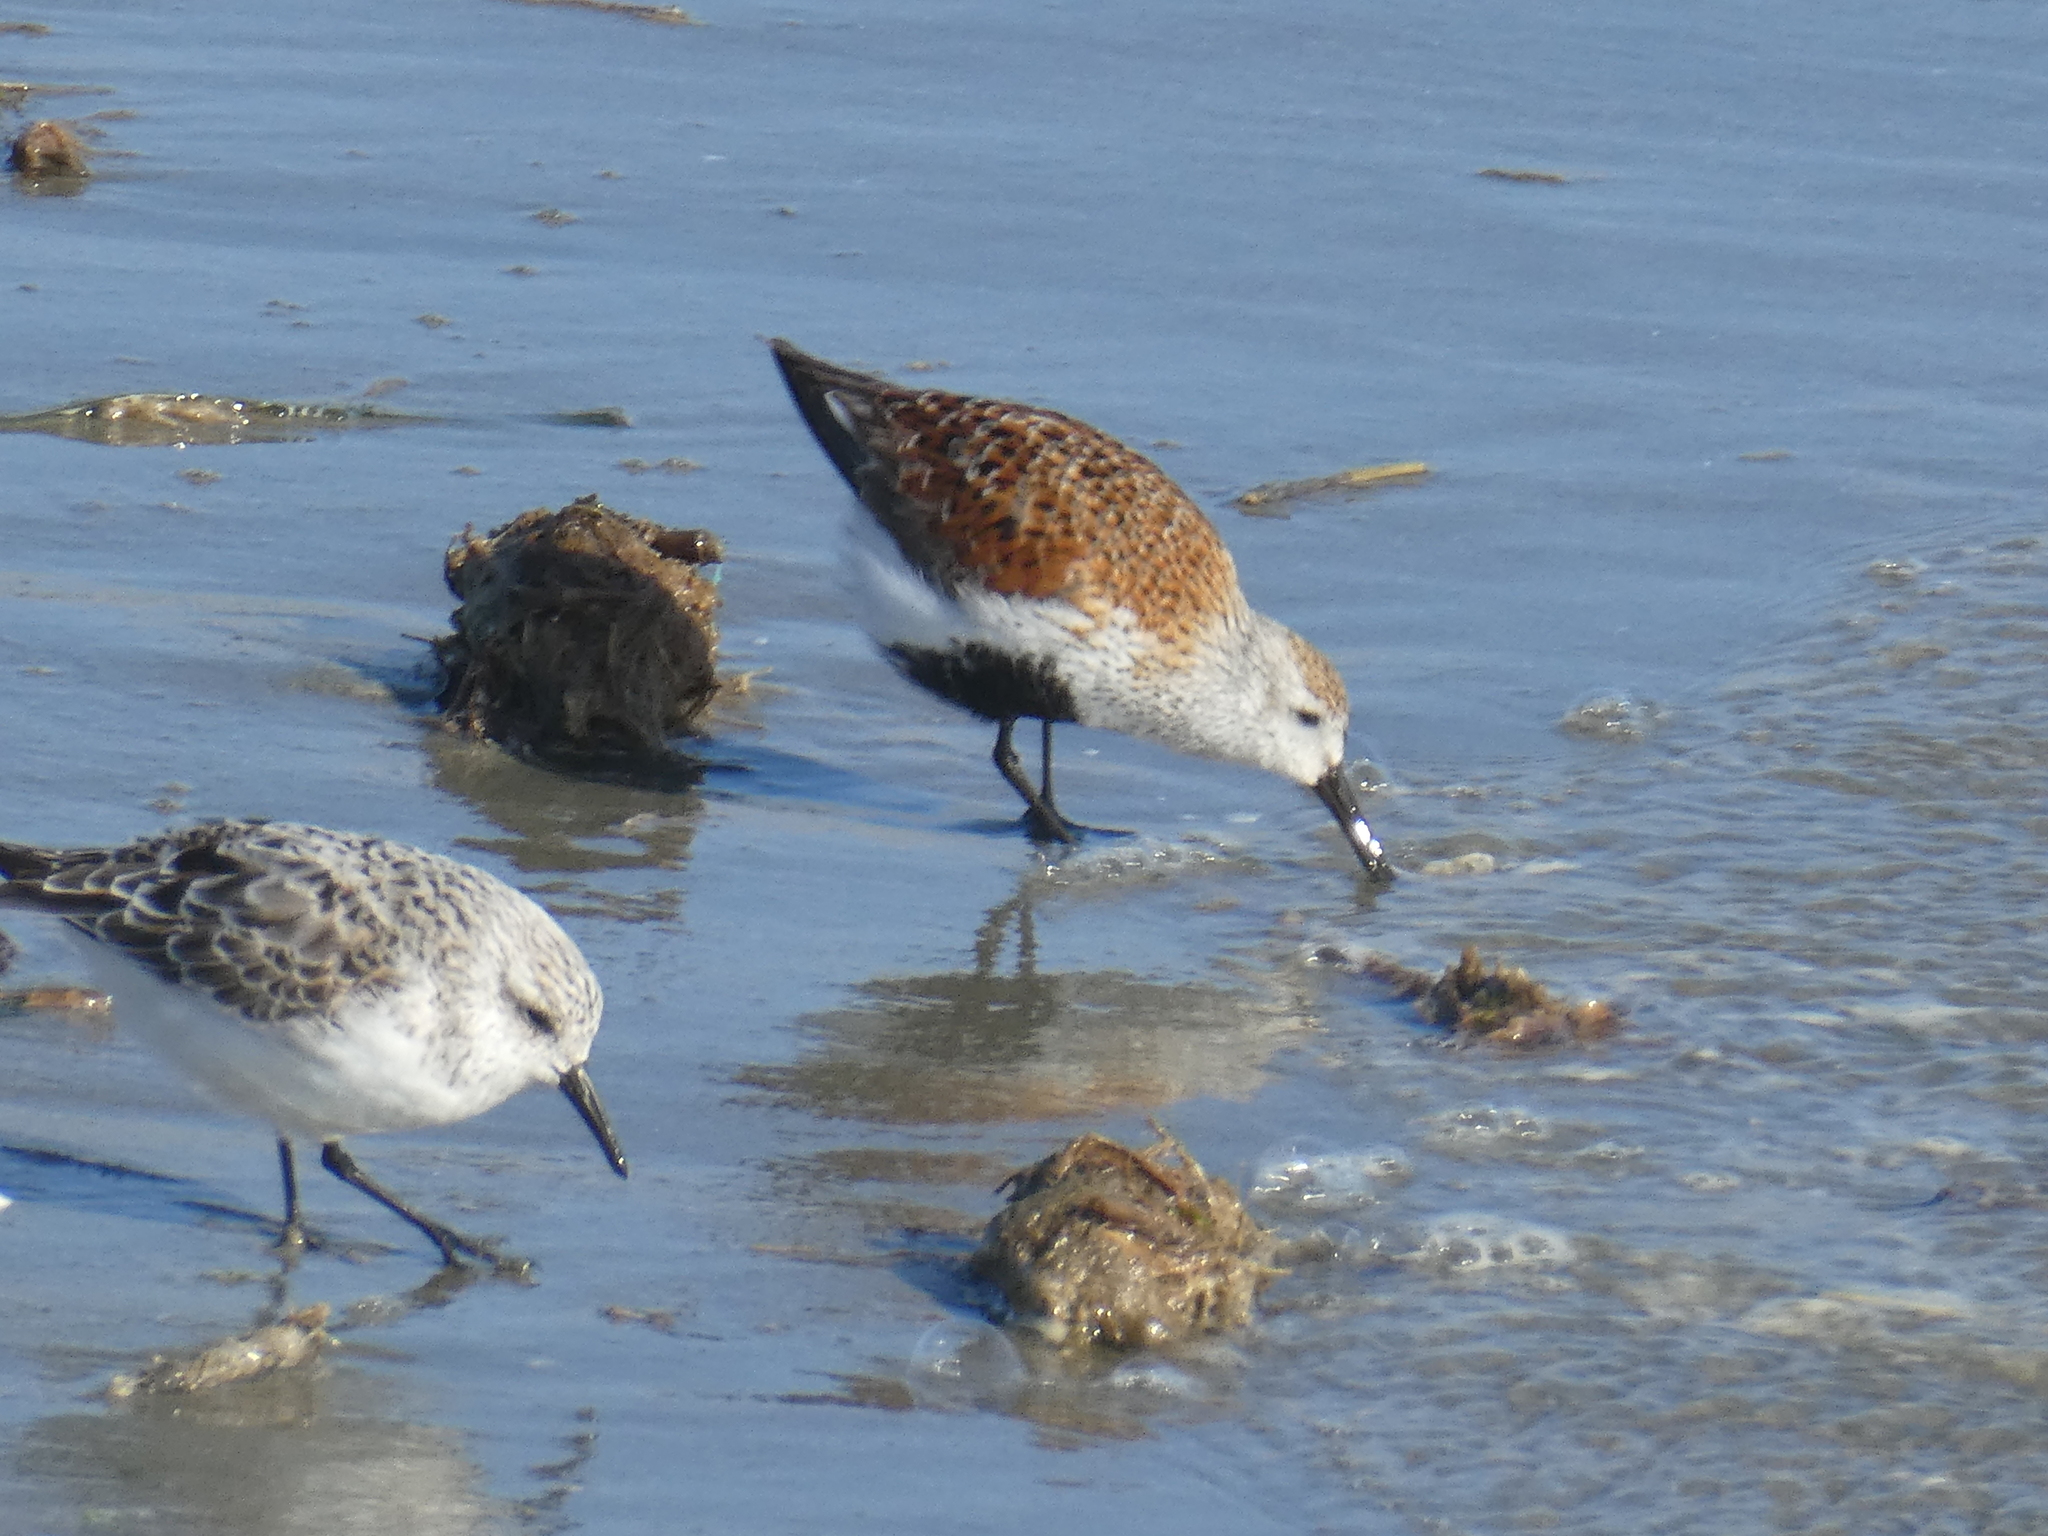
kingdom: Animalia
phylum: Chordata
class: Aves
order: Charadriiformes
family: Scolopacidae
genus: Calidris
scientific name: Calidris alpina
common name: Dunlin
